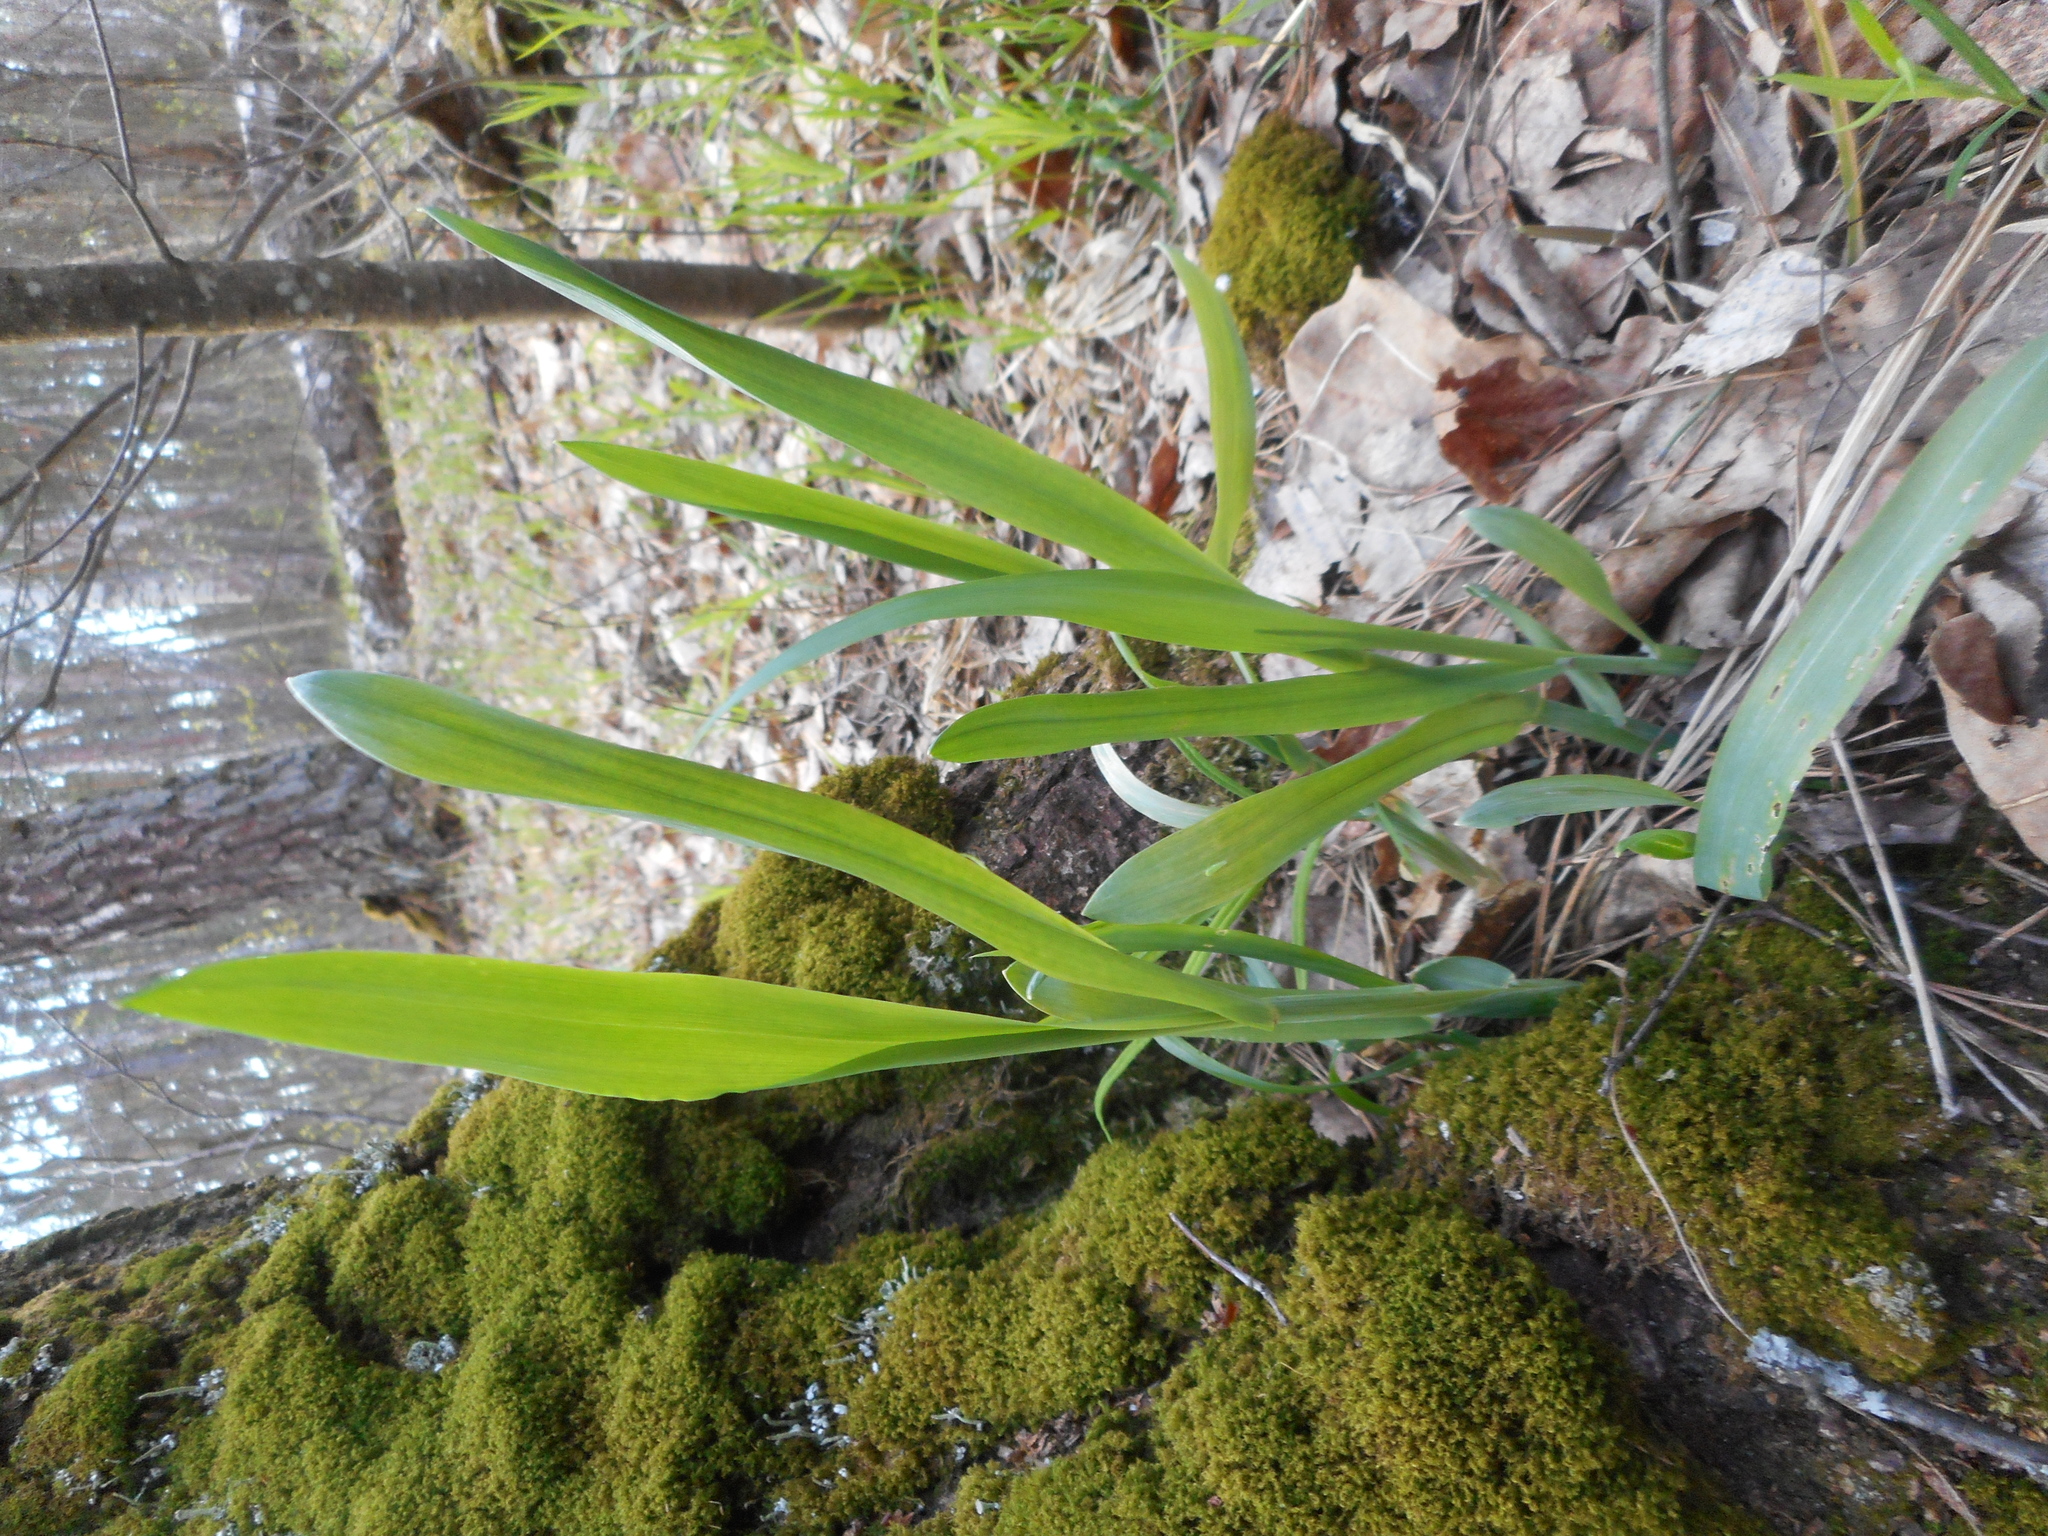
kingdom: Plantae
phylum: Tracheophyta
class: Liliopsida
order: Poales
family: Poaceae
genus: Milium
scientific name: Milium effusum
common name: Wood millet
